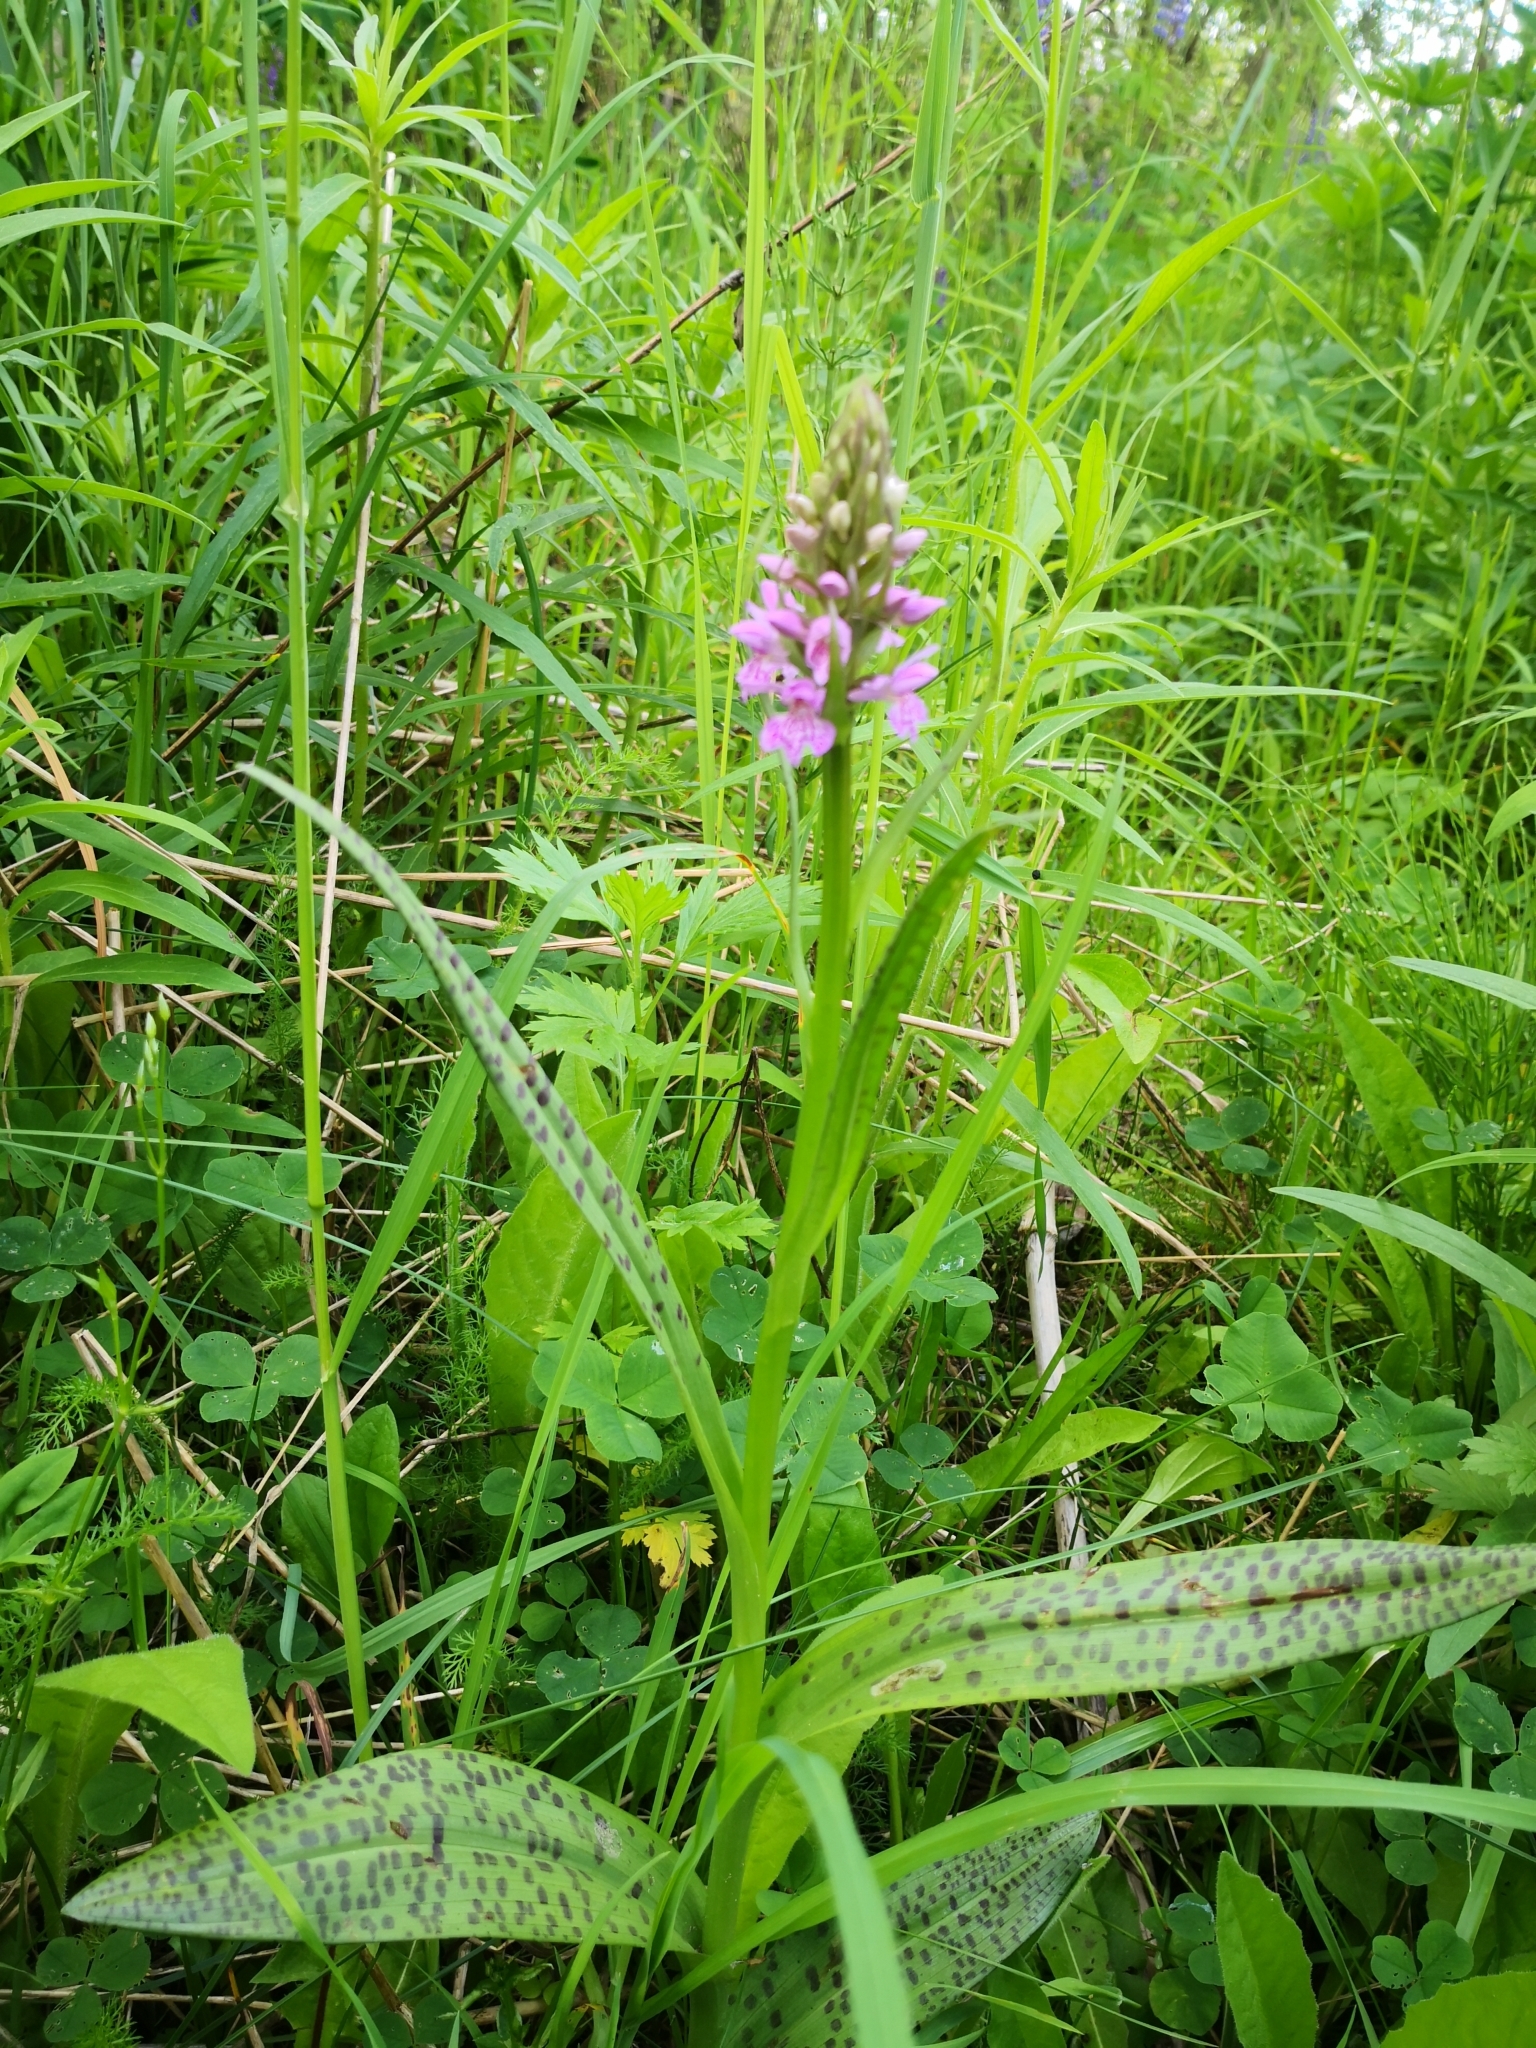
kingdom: Plantae
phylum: Tracheophyta
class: Liliopsida
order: Asparagales
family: Orchidaceae
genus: Dactylorhiza
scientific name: Dactylorhiza majalis
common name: Marsh orchid
